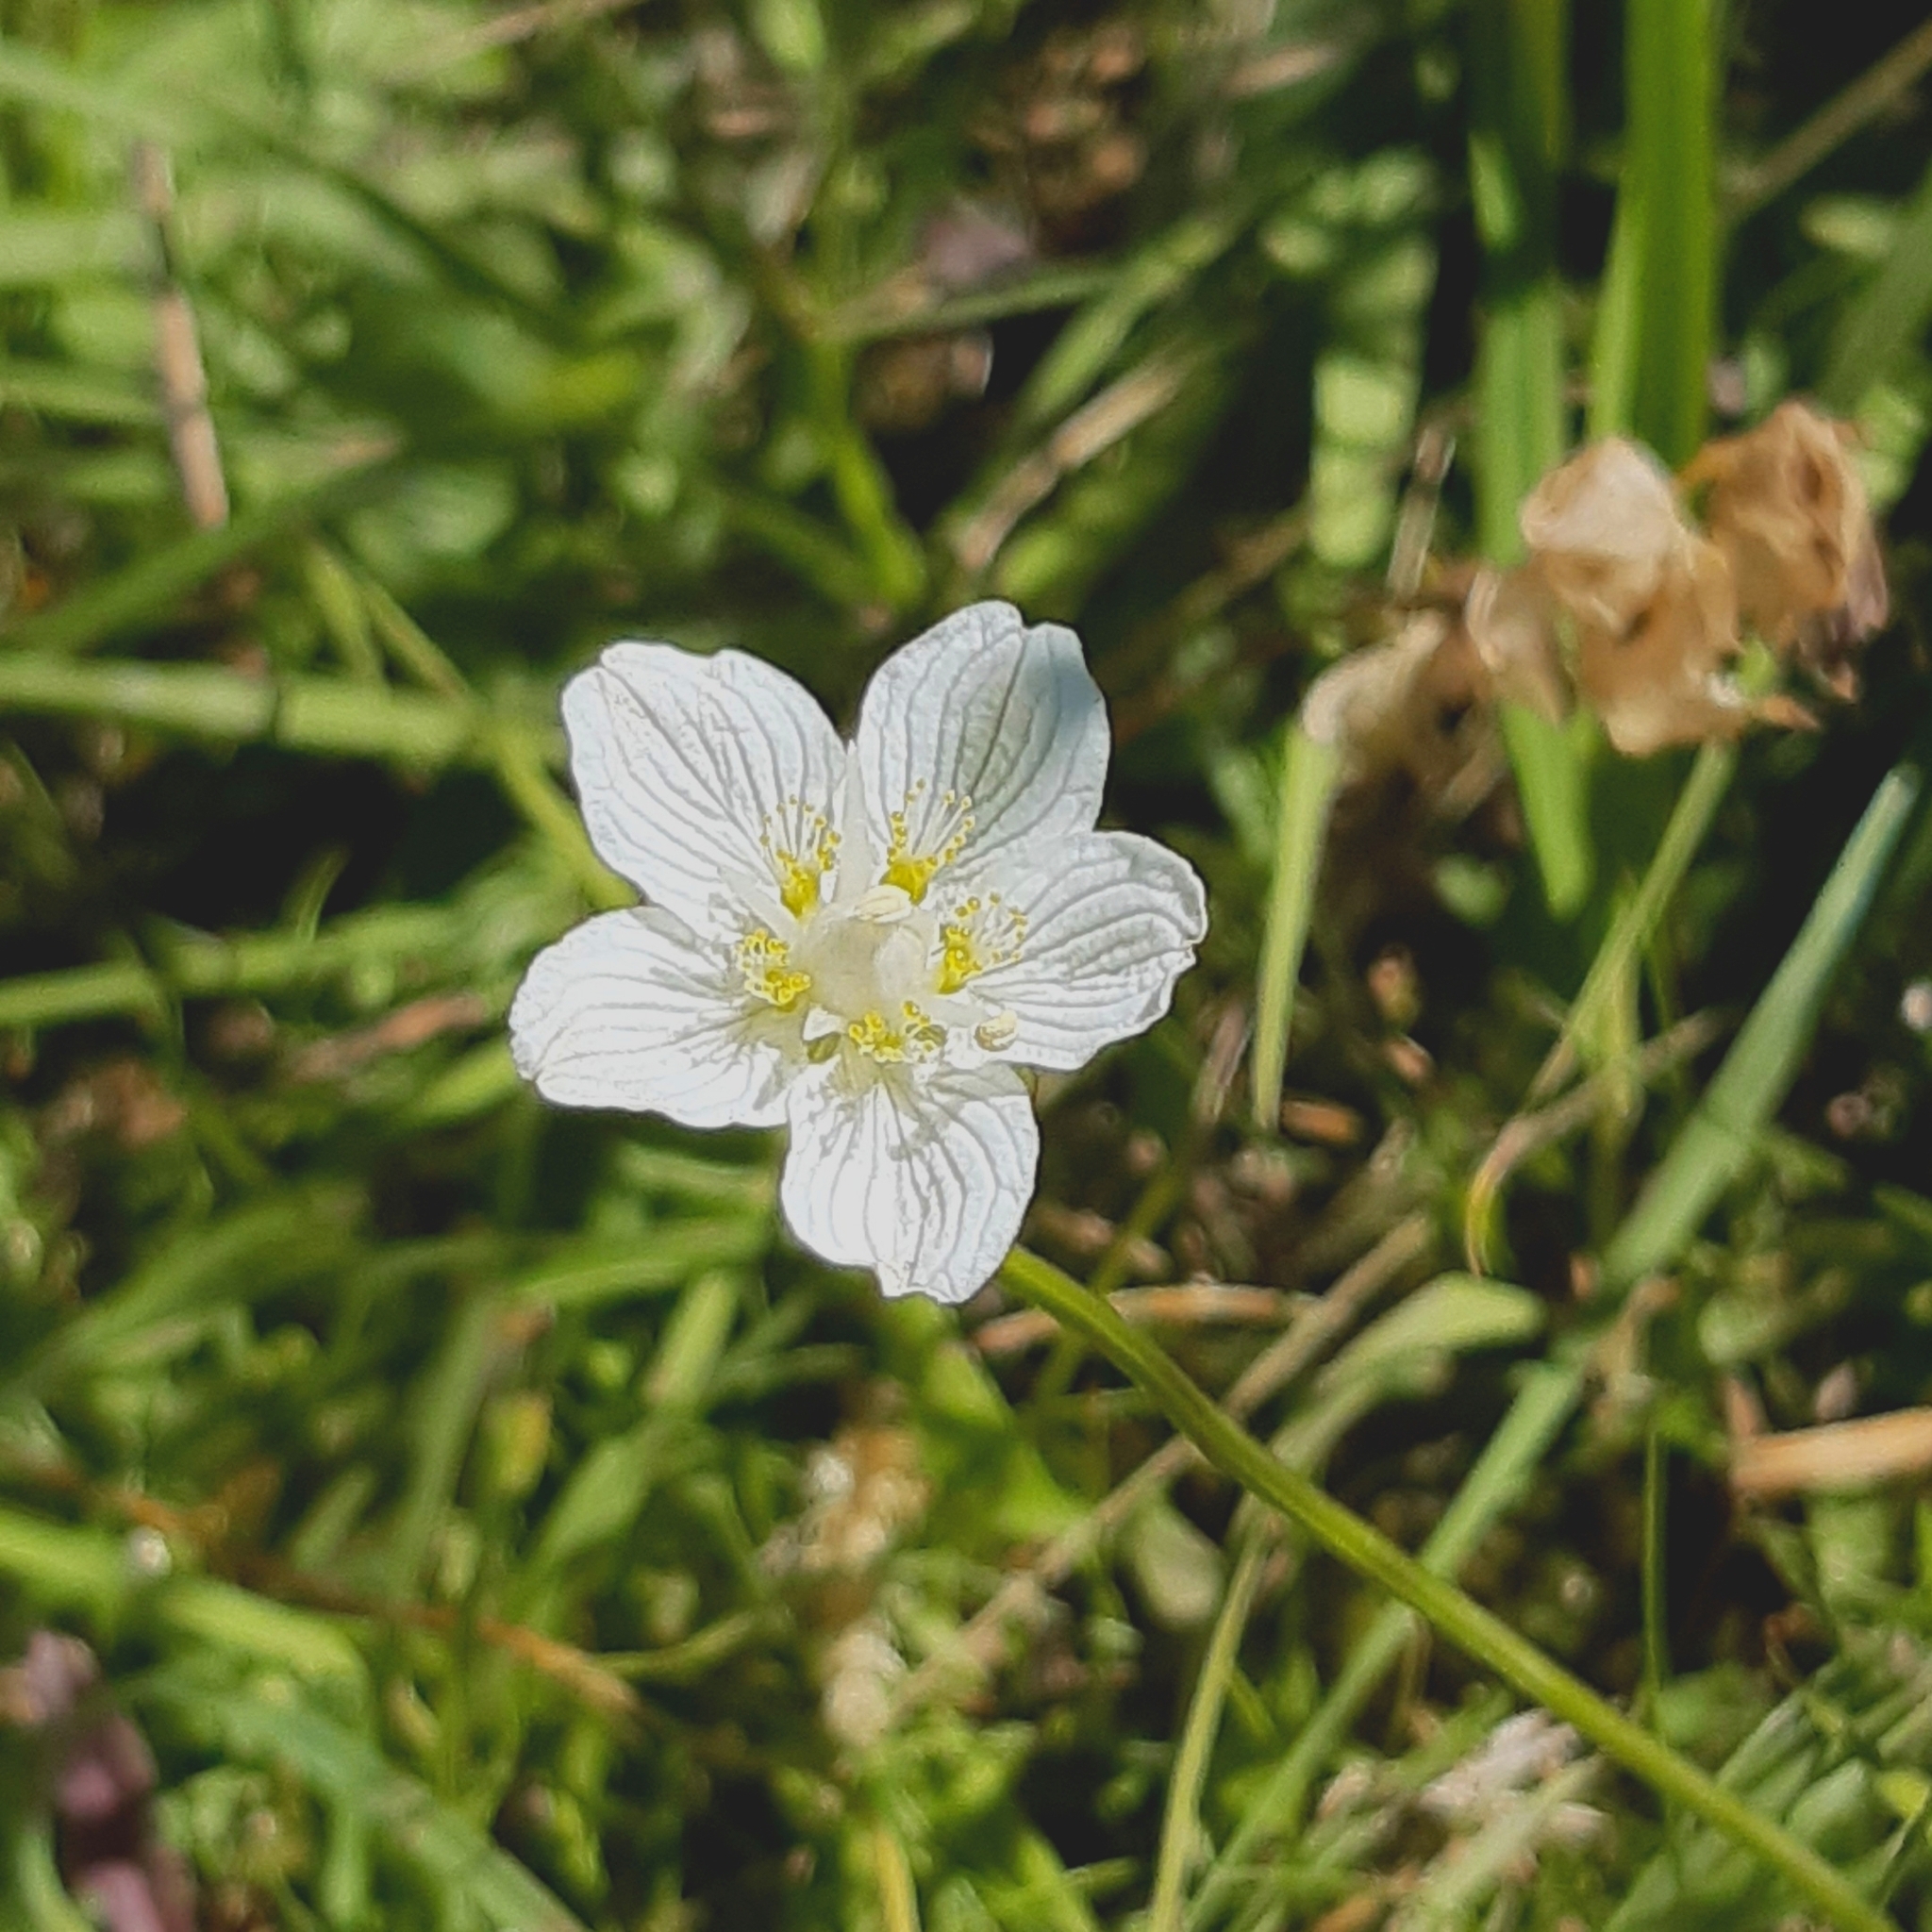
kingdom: Plantae
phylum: Tracheophyta
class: Magnoliopsida
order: Celastrales
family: Parnassiaceae
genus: Parnassia
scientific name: Parnassia palustris
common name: Grass-of-parnassus
